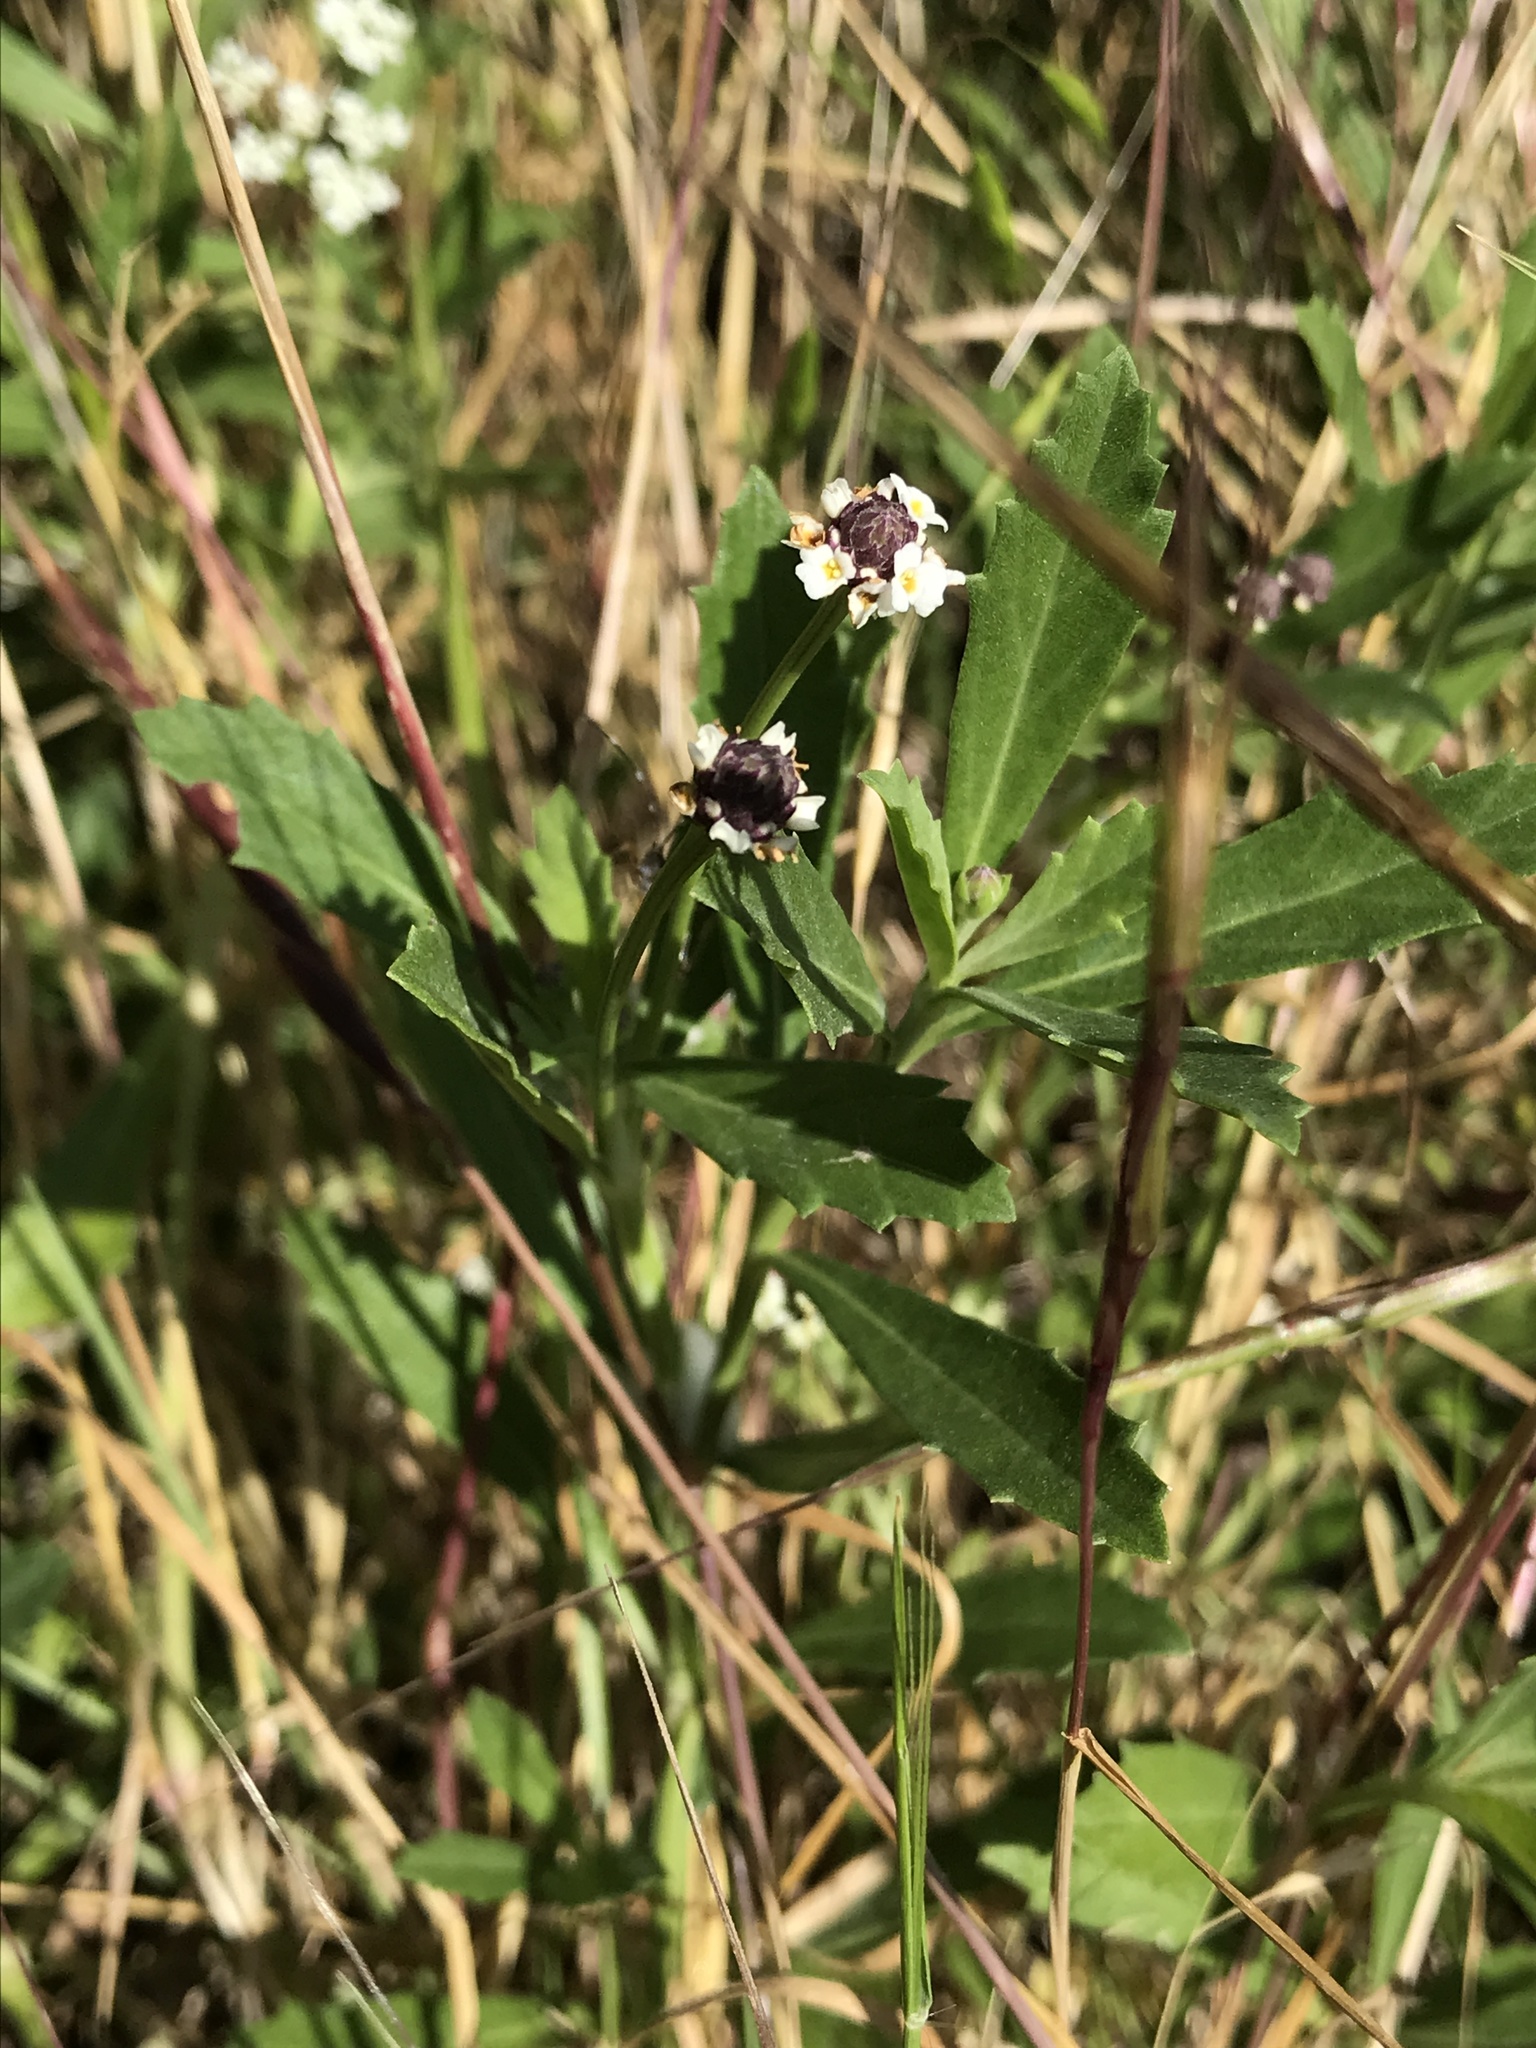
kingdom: Plantae
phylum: Tracheophyta
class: Magnoliopsida
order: Lamiales
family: Verbenaceae
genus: Phyla
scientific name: Phyla nodiflora
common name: Frogfruit
